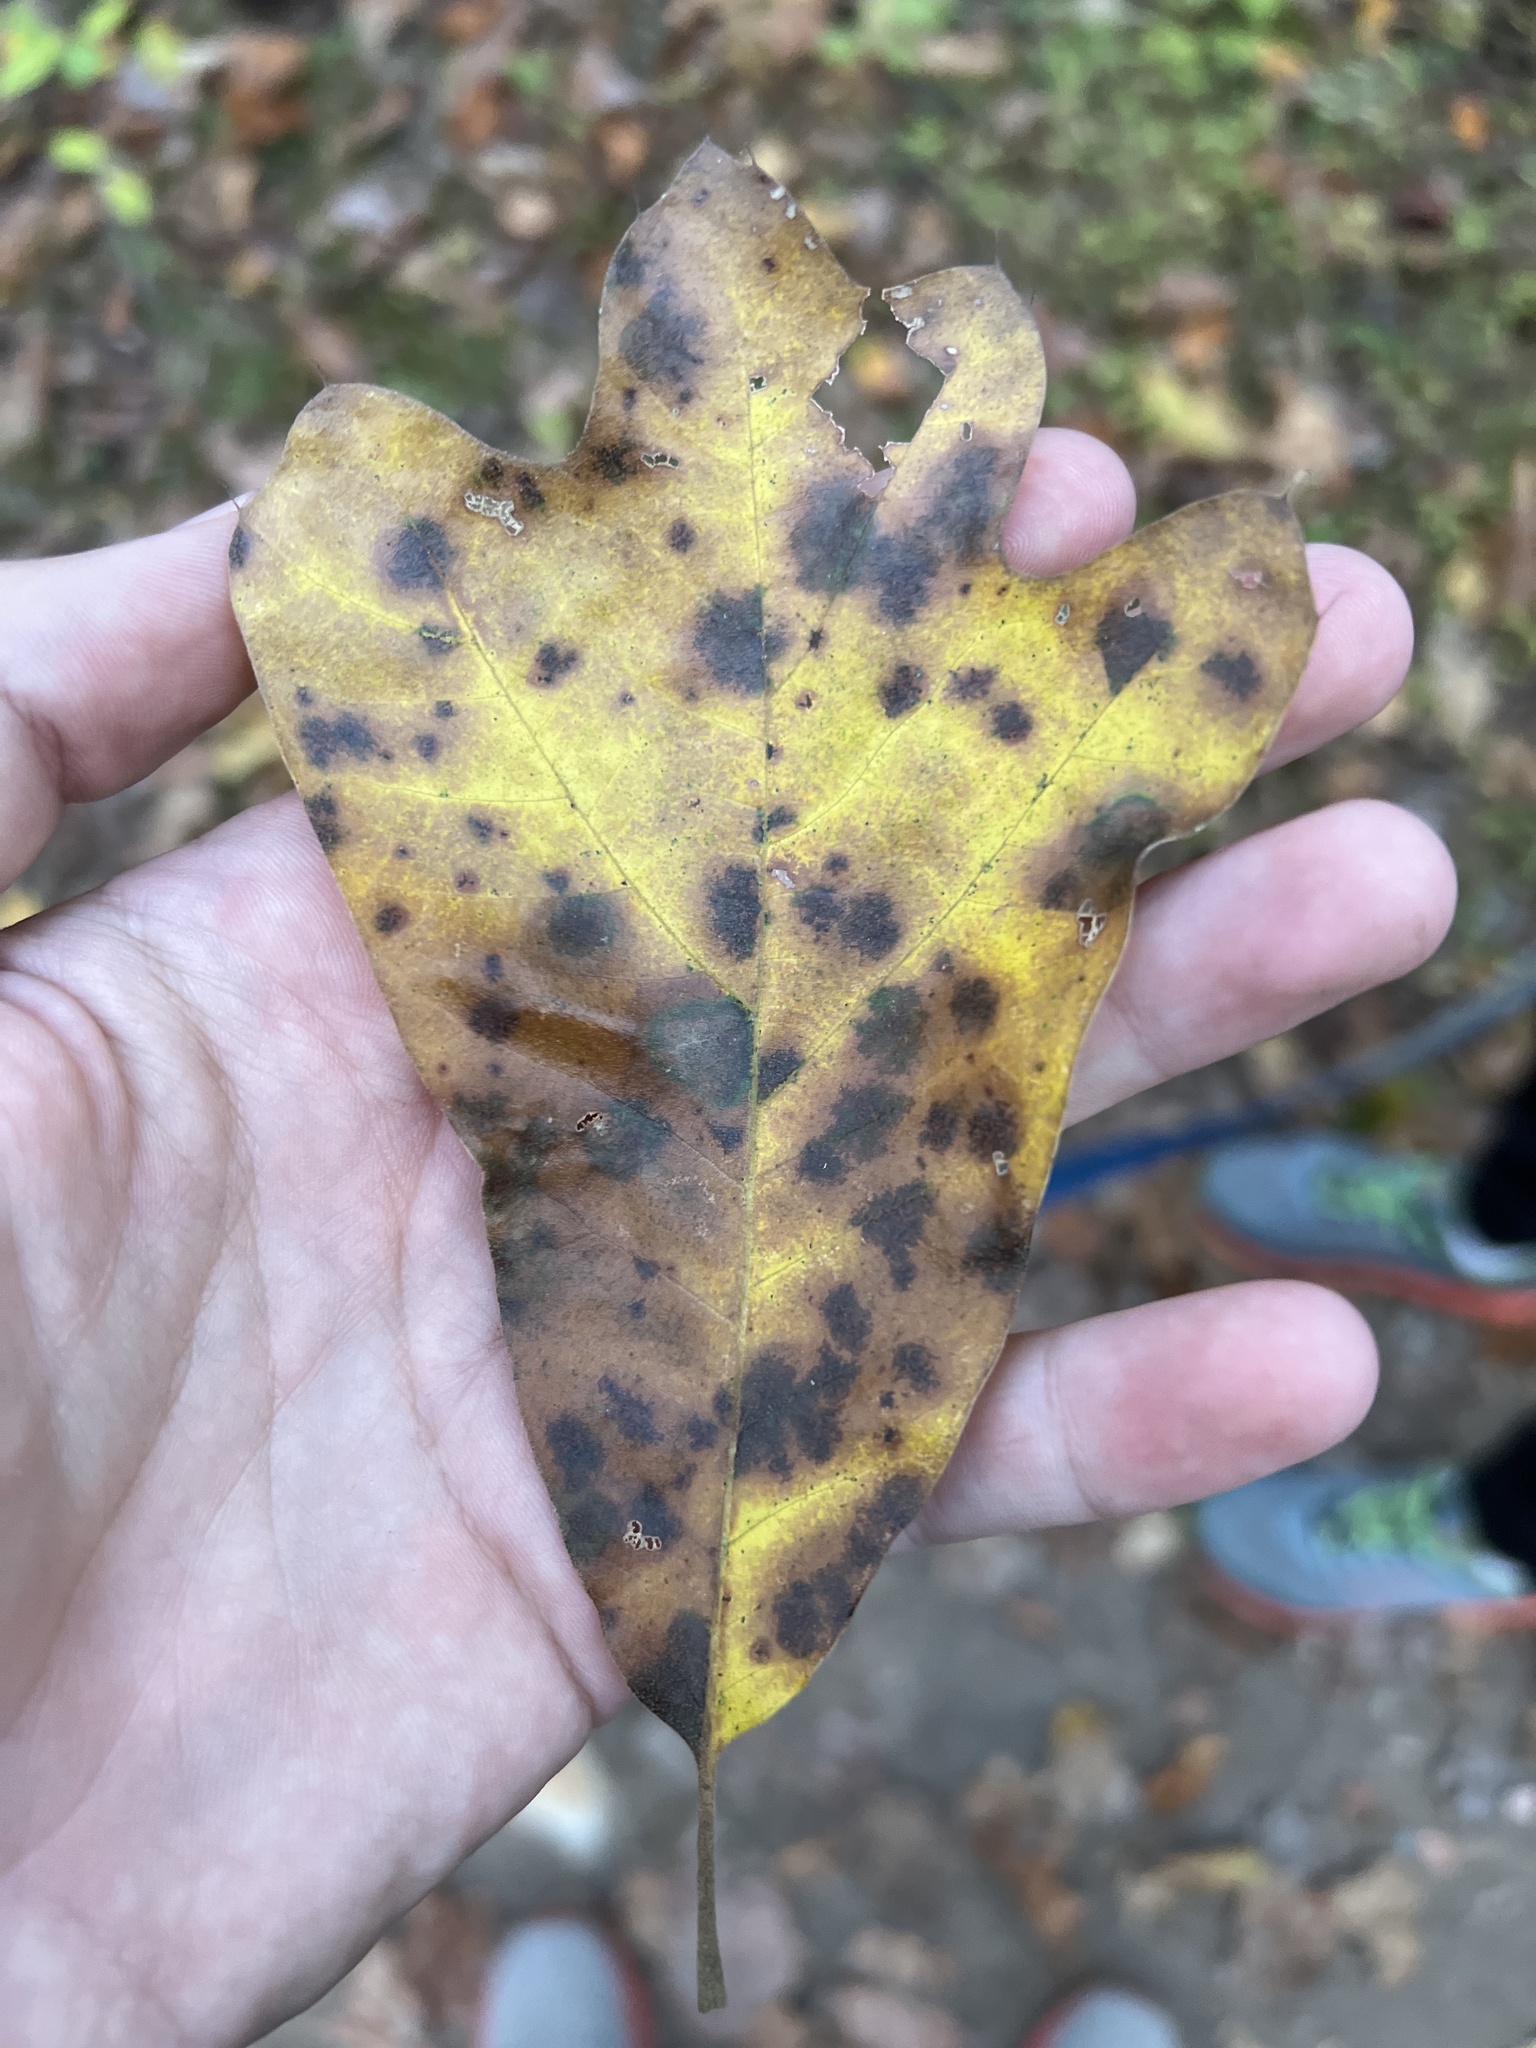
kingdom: Plantae
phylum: Tracheophyta
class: Magnoliopsida
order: Fagales
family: Fagaceae
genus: Quercus
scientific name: Quercus falcata
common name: Southern red oak
